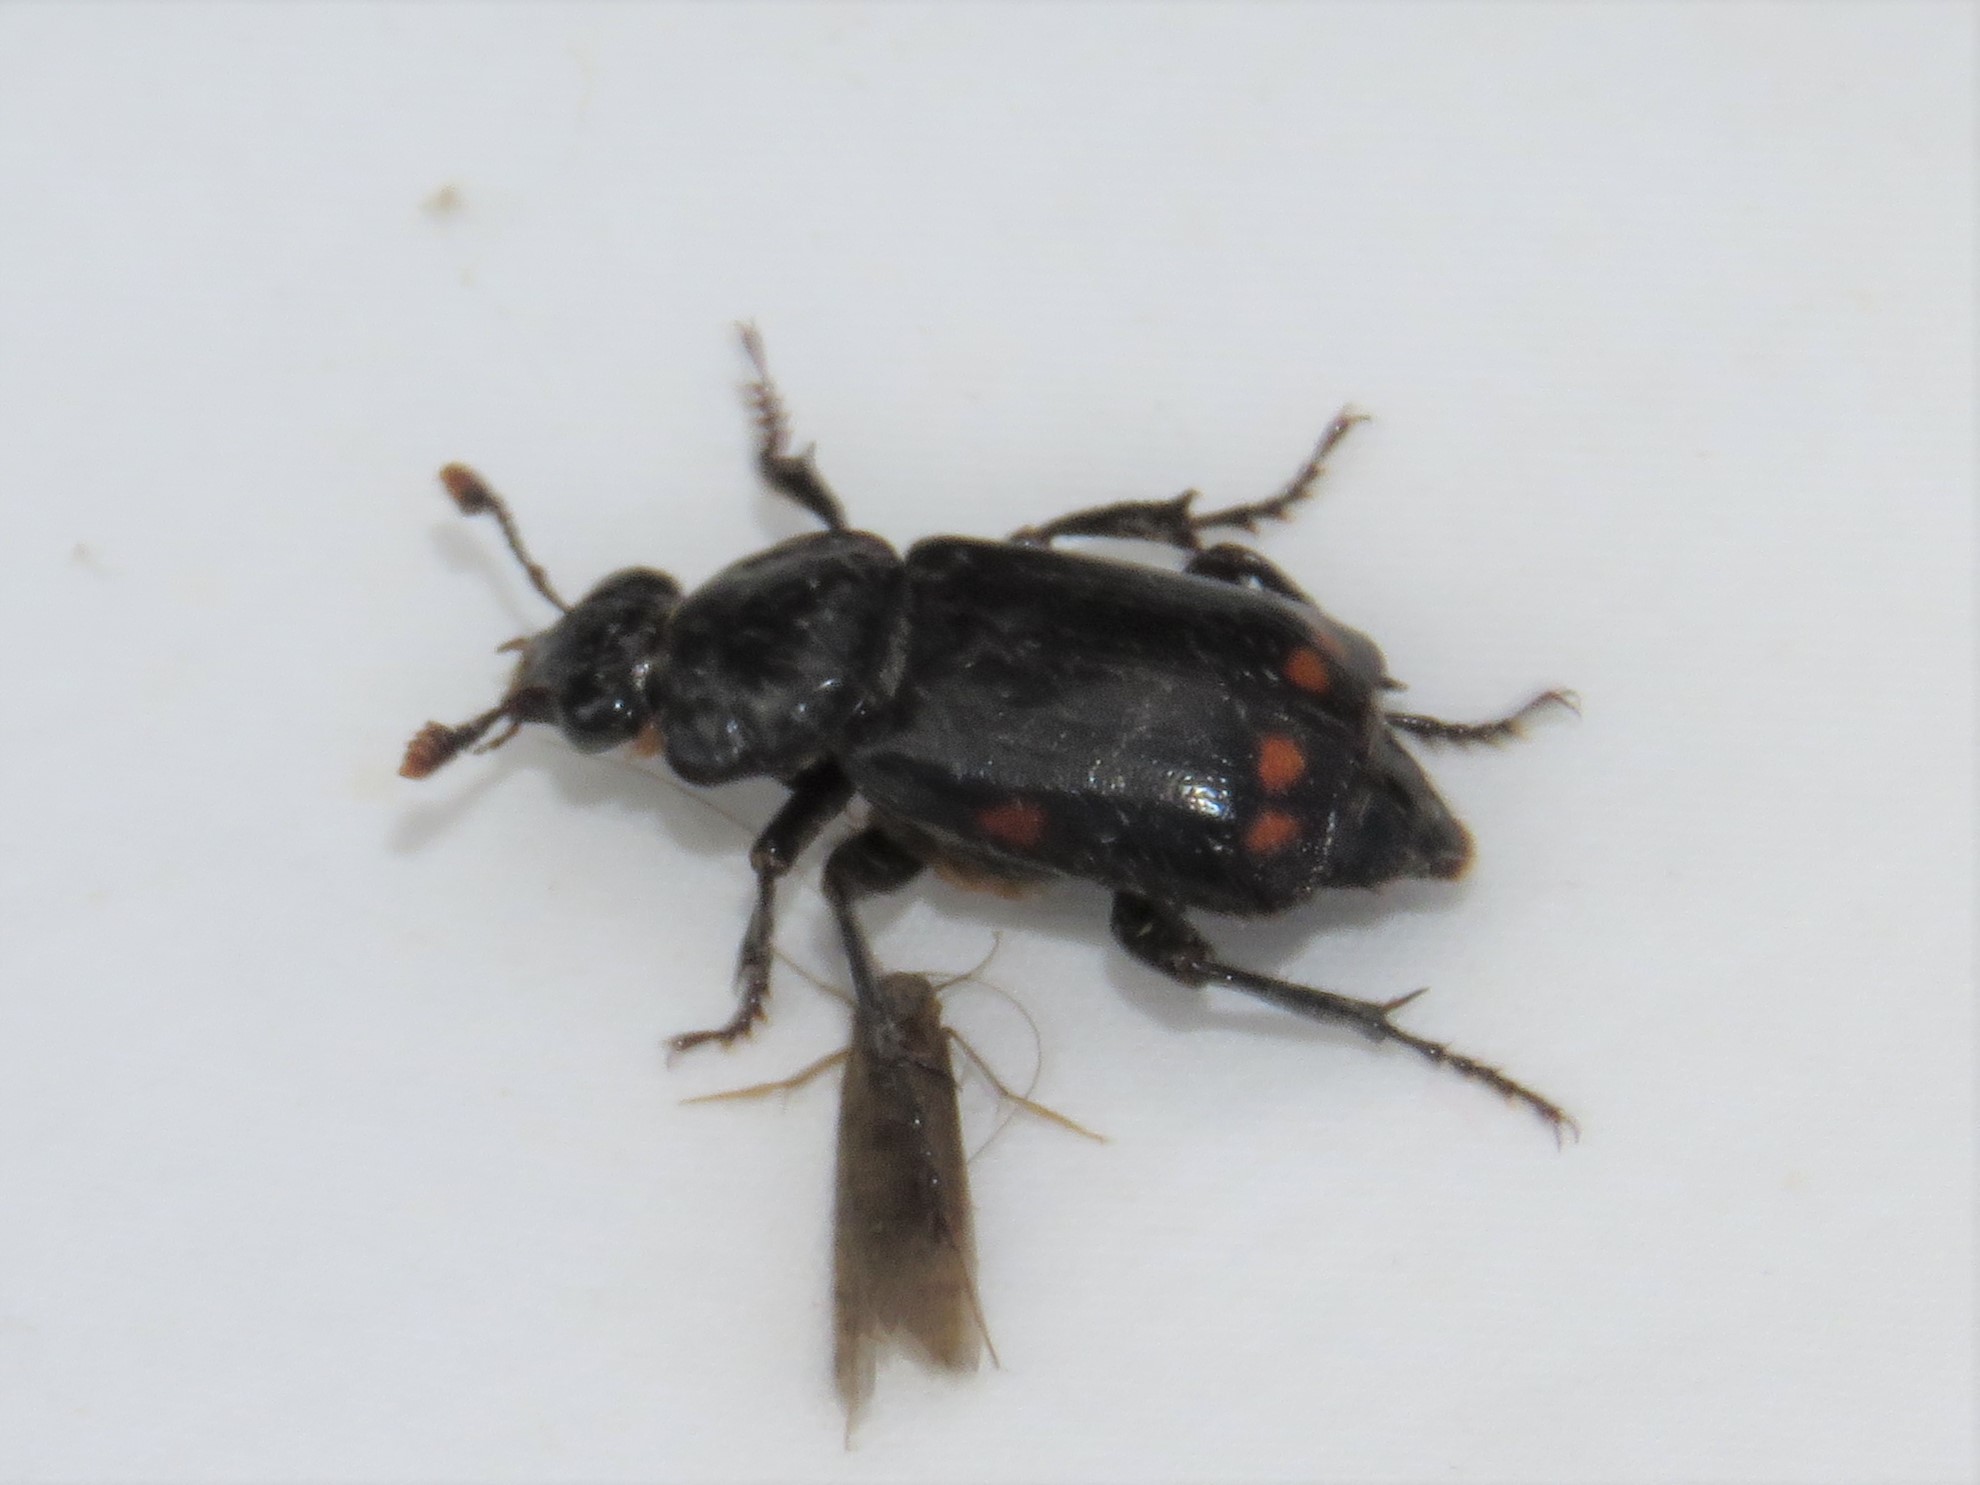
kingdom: Animalia
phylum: Arthropoda
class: Insecta
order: Coleoptera
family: Staphylinidae
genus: Nicrophorus
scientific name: Nicrophorus pustulatus
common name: Pustulated carrion beetle
